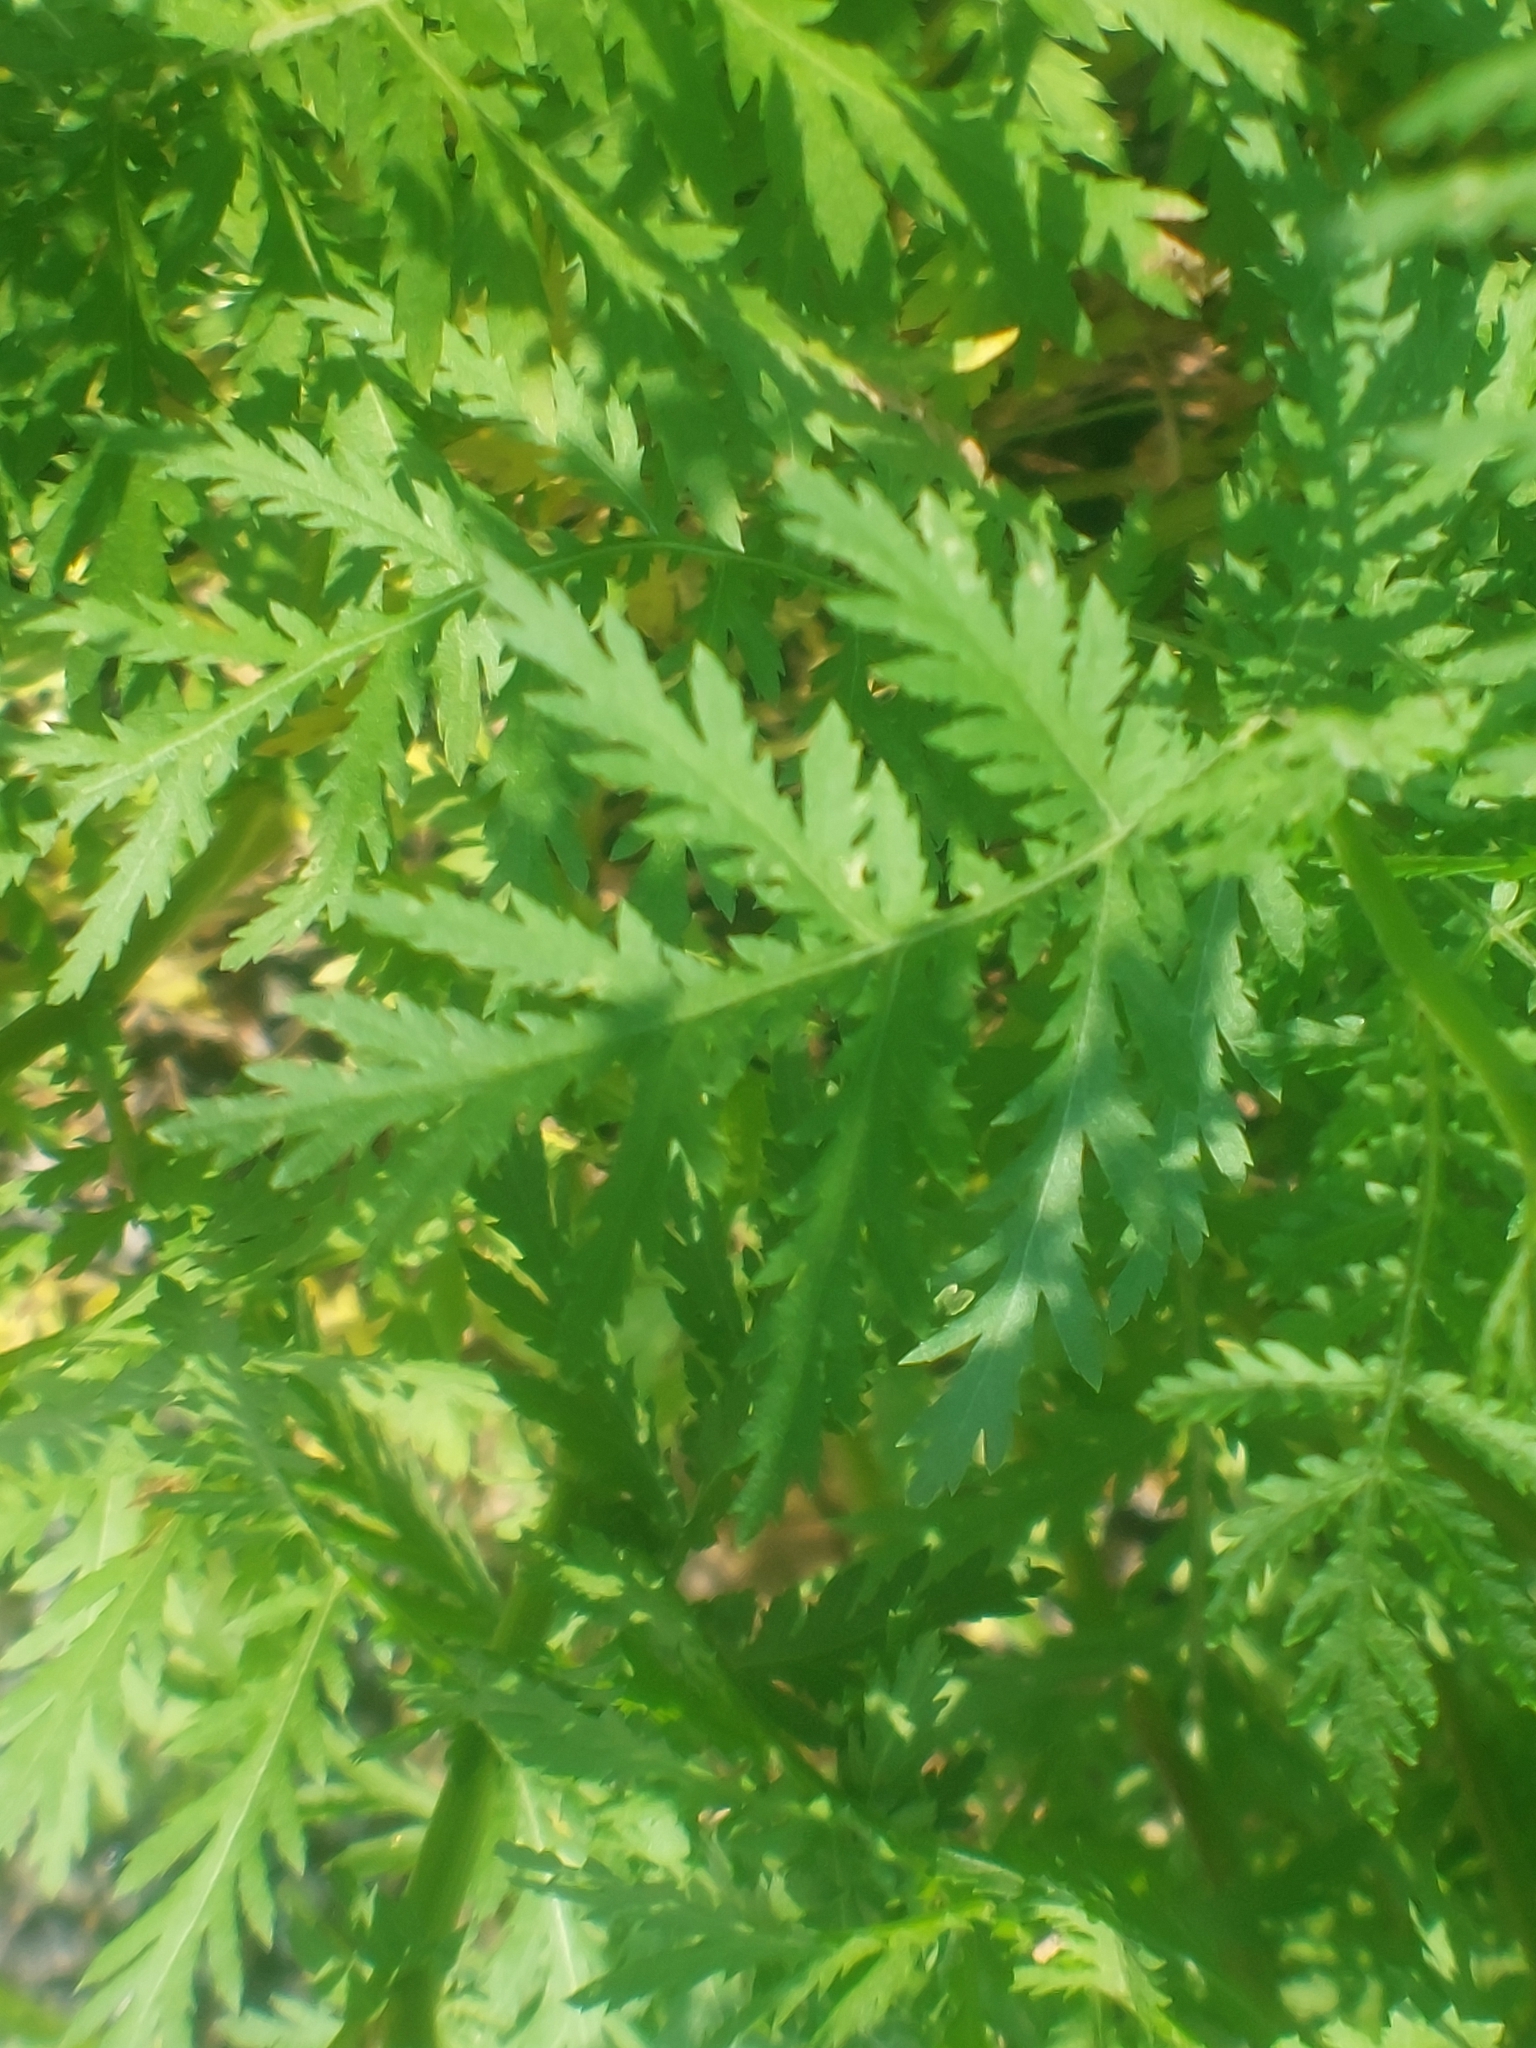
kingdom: Plantae
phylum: Tracheophyta
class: Magnoliopsida
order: Asterales
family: Asteraceae
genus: Tanacetum
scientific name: Tanacetum vulgare
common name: Common tansy
